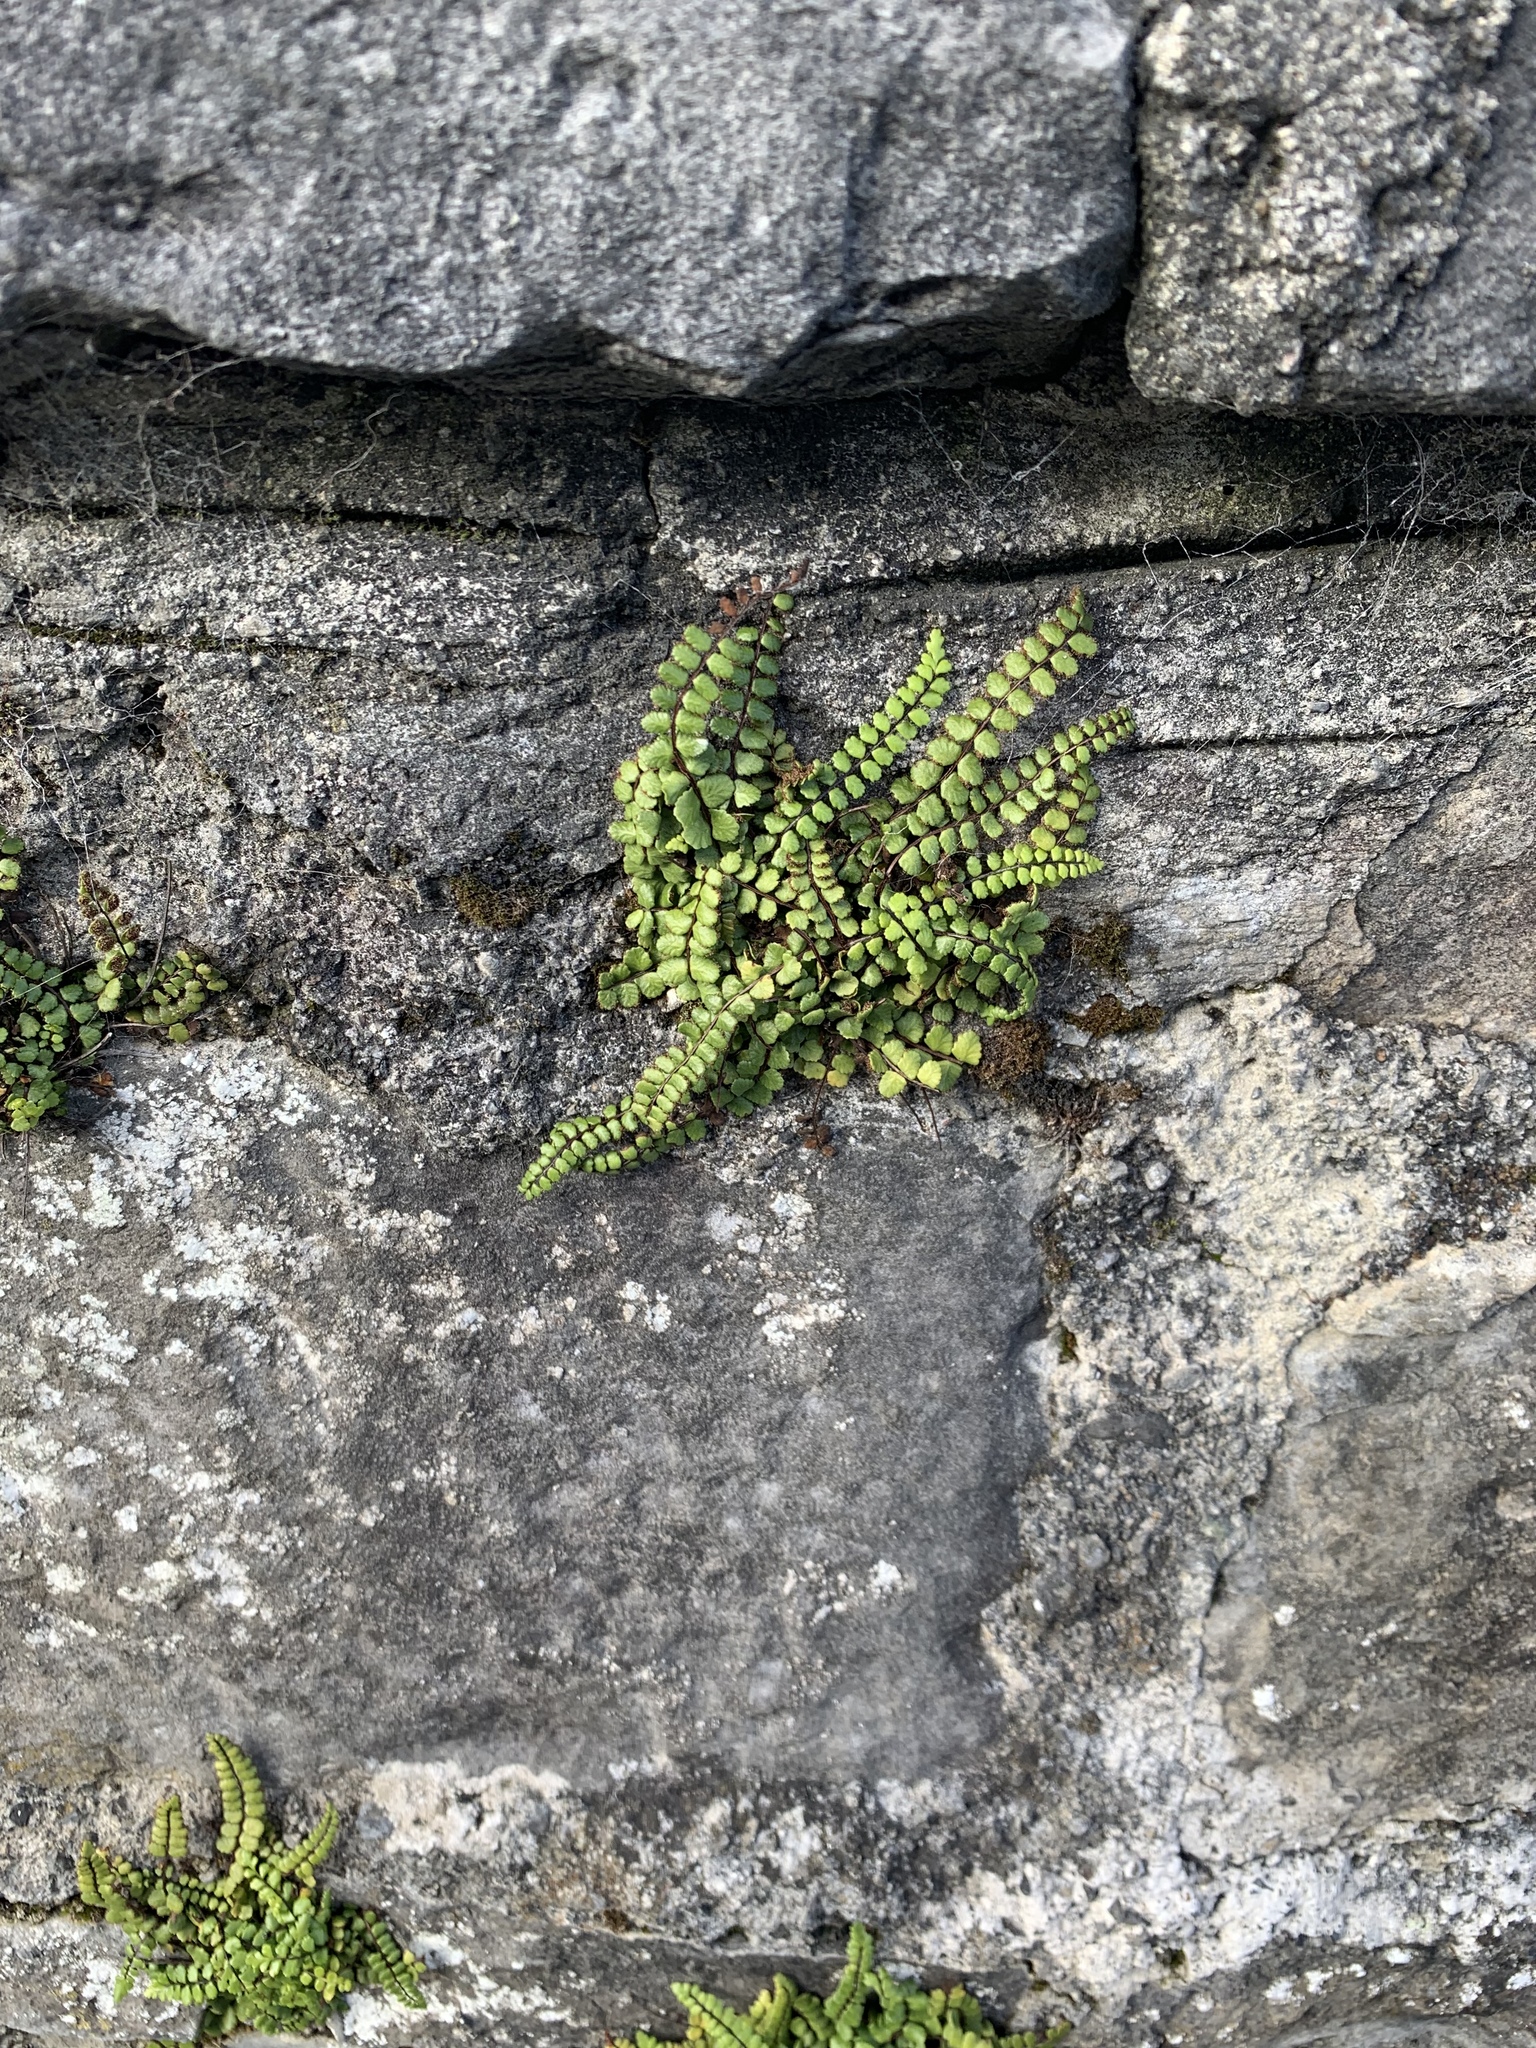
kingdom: Plantae
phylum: Tracheophyta
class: Polypodiopsida
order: Polypodiales
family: Aspleniaceae
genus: Asplenium
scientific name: Asplenium trichomanes
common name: Maidenhair spleenwort
